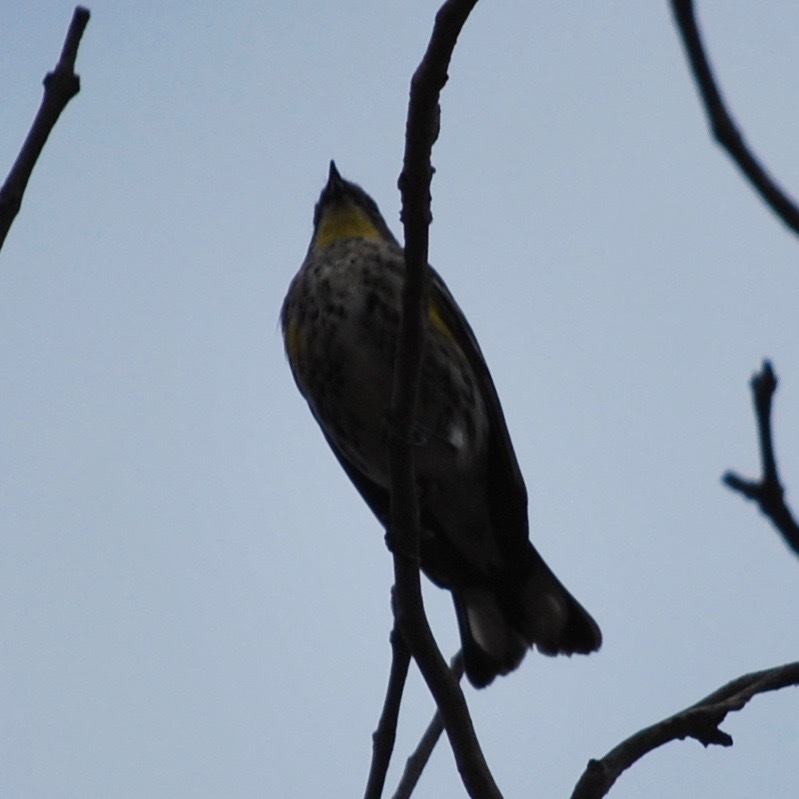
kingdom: Animalia
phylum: Chordata
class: Aves
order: Passeriformes
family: Parulidae
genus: Setophaga
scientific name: Setophaga auduboni
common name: Audubon's warbler
